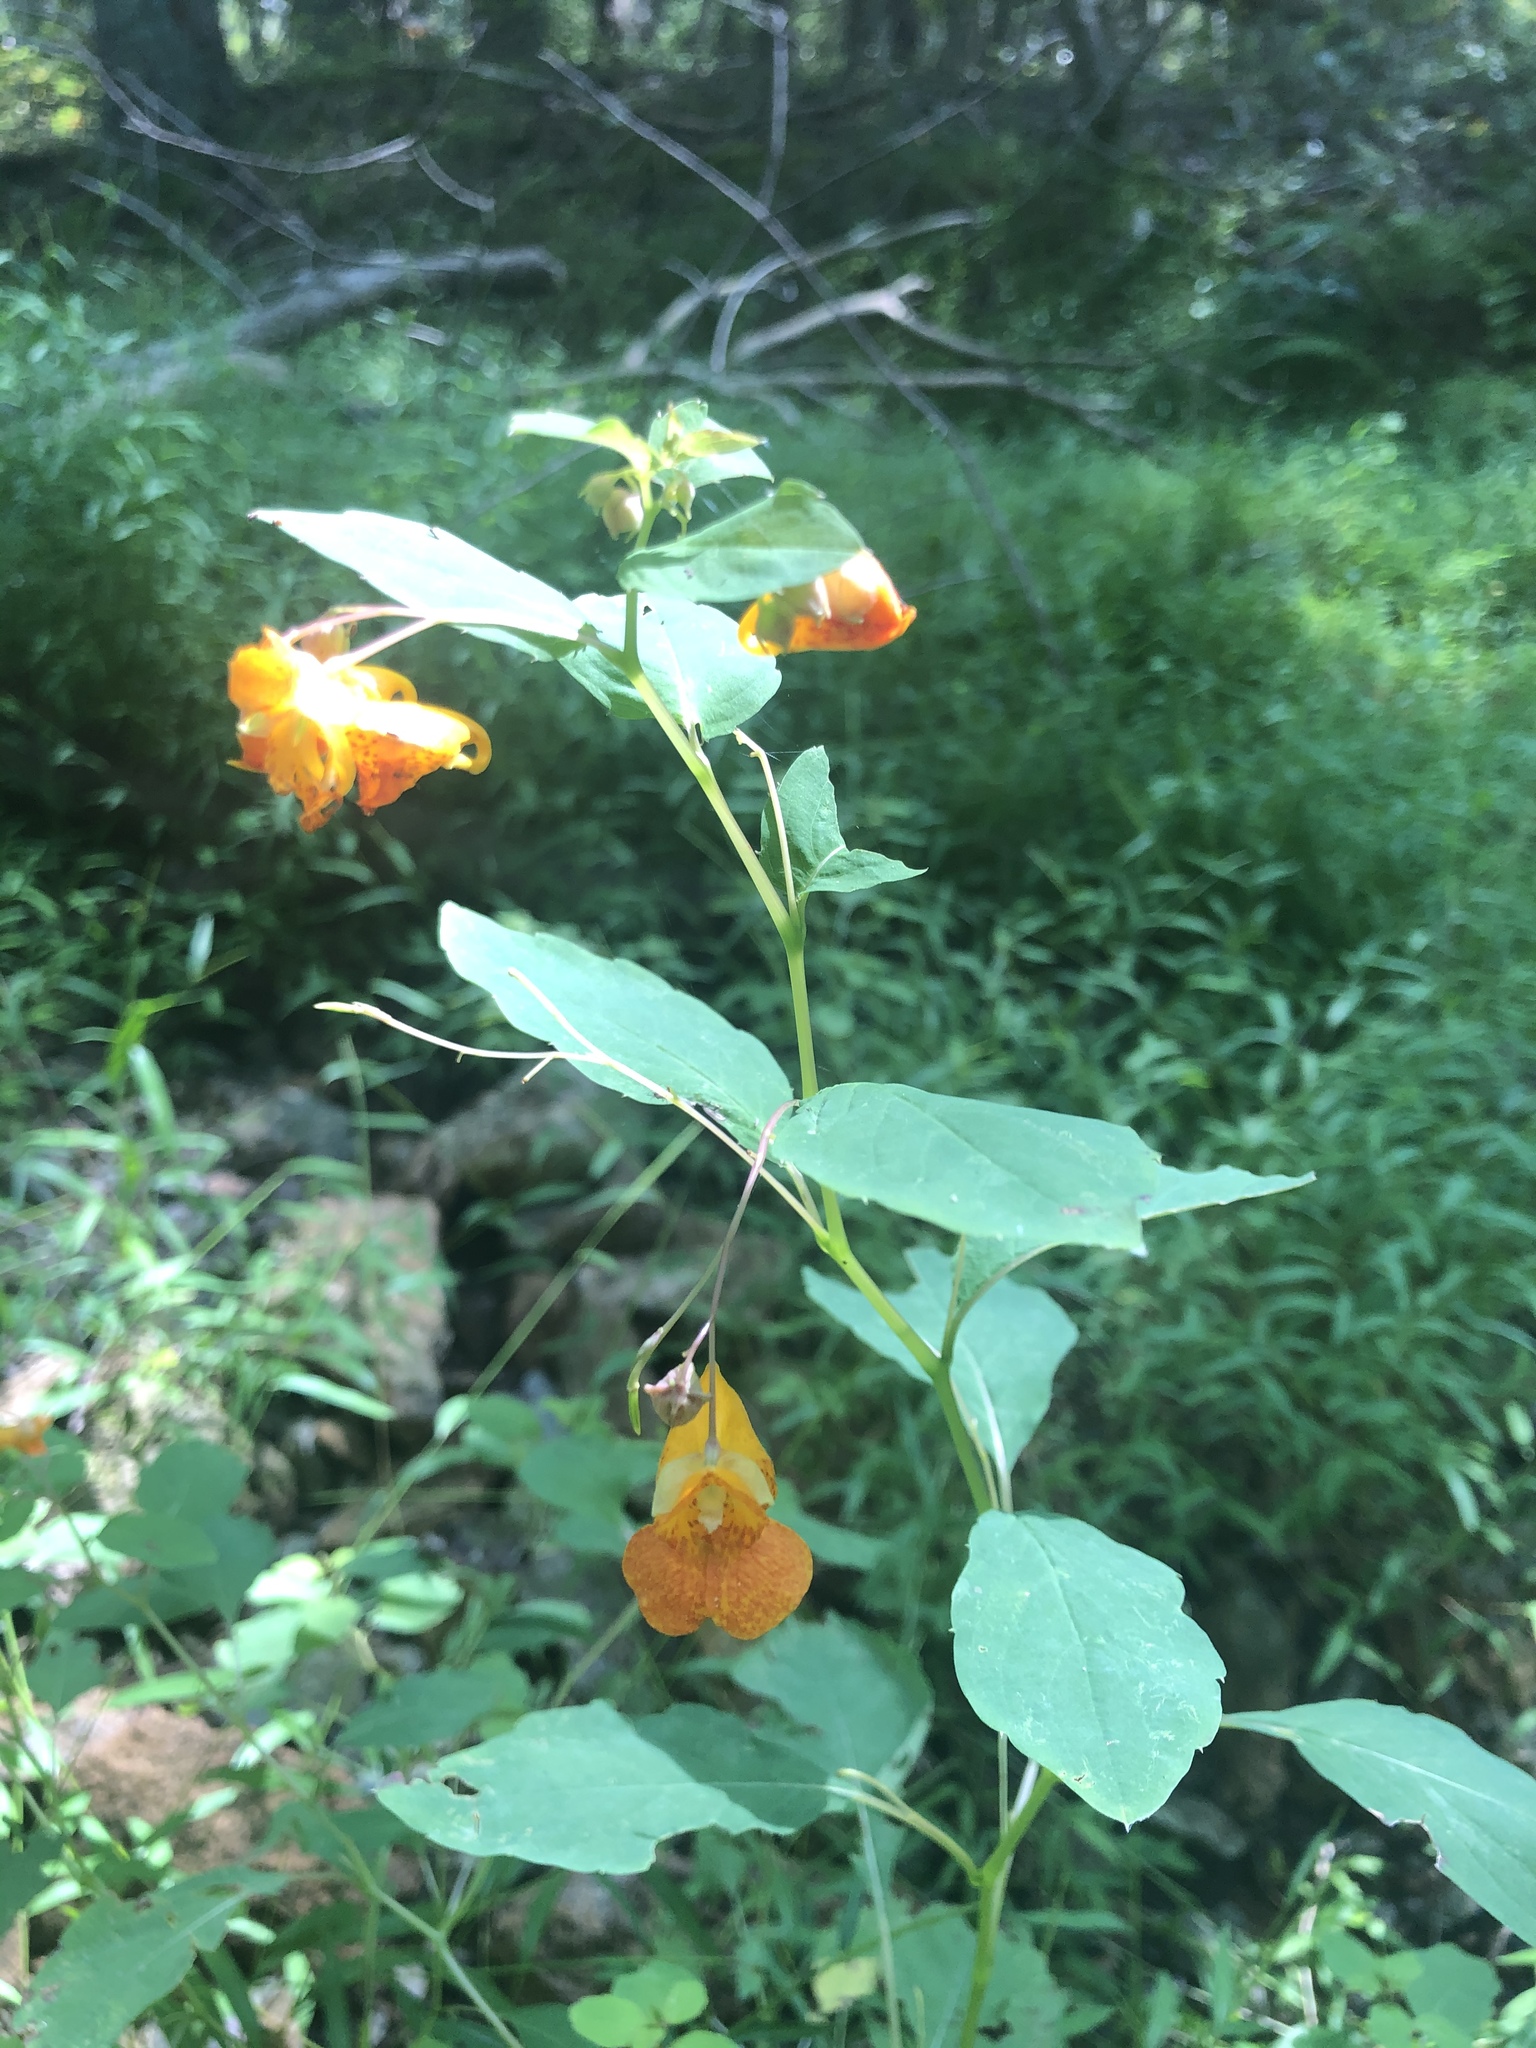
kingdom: Plantae
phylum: Tracheophyta
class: Magnoliopsida
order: Ericales
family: Balsaminaceae
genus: Impatiens
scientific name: Impatiens capensis
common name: Orange balsam
